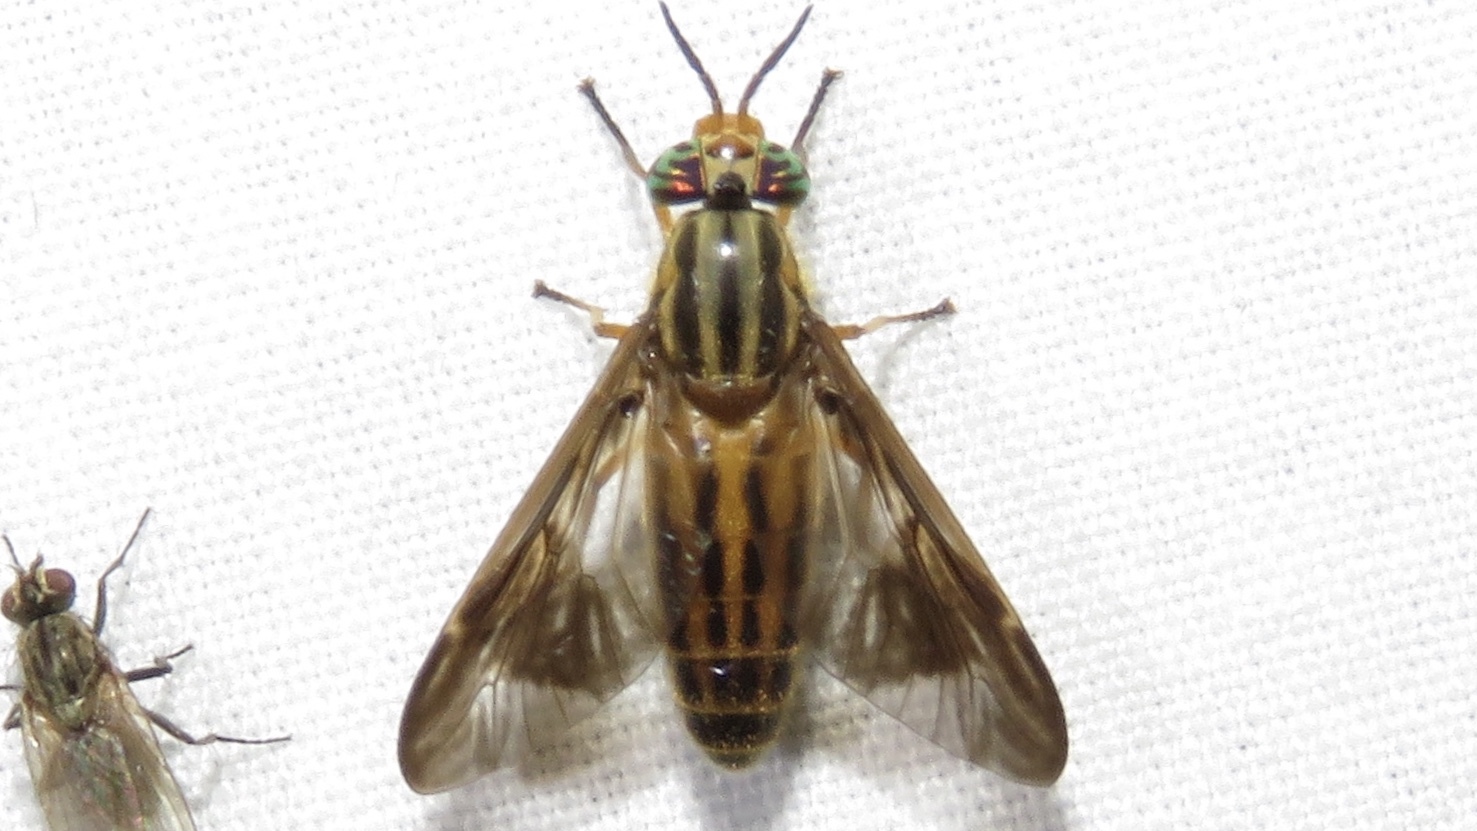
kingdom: Animalia
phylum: Arthropoda
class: Insecta
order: Diptera
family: Tabanidae
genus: Chrysops
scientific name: Chrysops vittatus
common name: Striped deer fly
